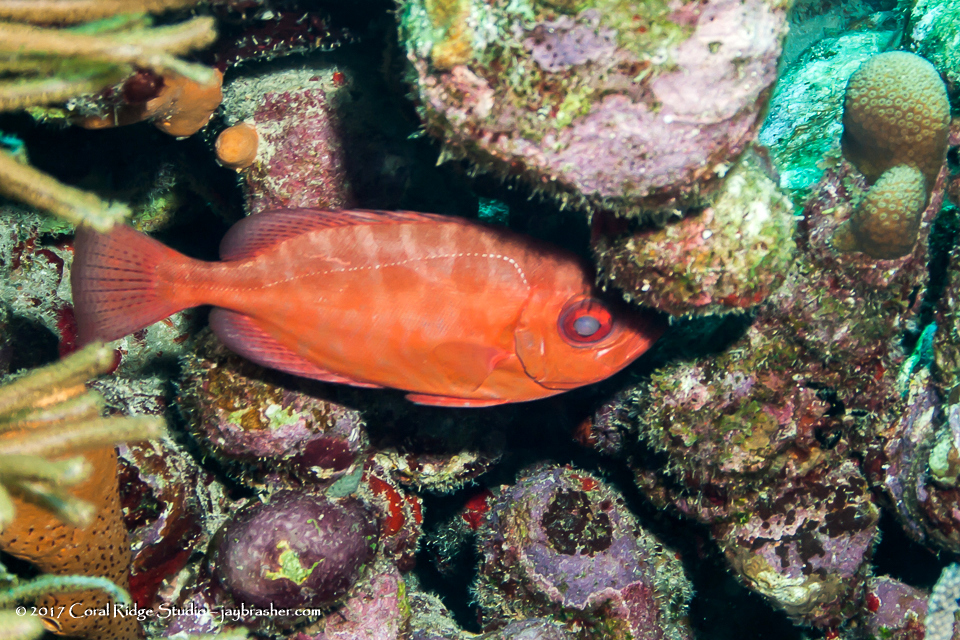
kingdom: Animalia
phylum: Chordata
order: Perciformes
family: Priacanthidae
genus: Heteropriacanthus
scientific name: Heteropriacanthus cruentatus
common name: Glasseye
